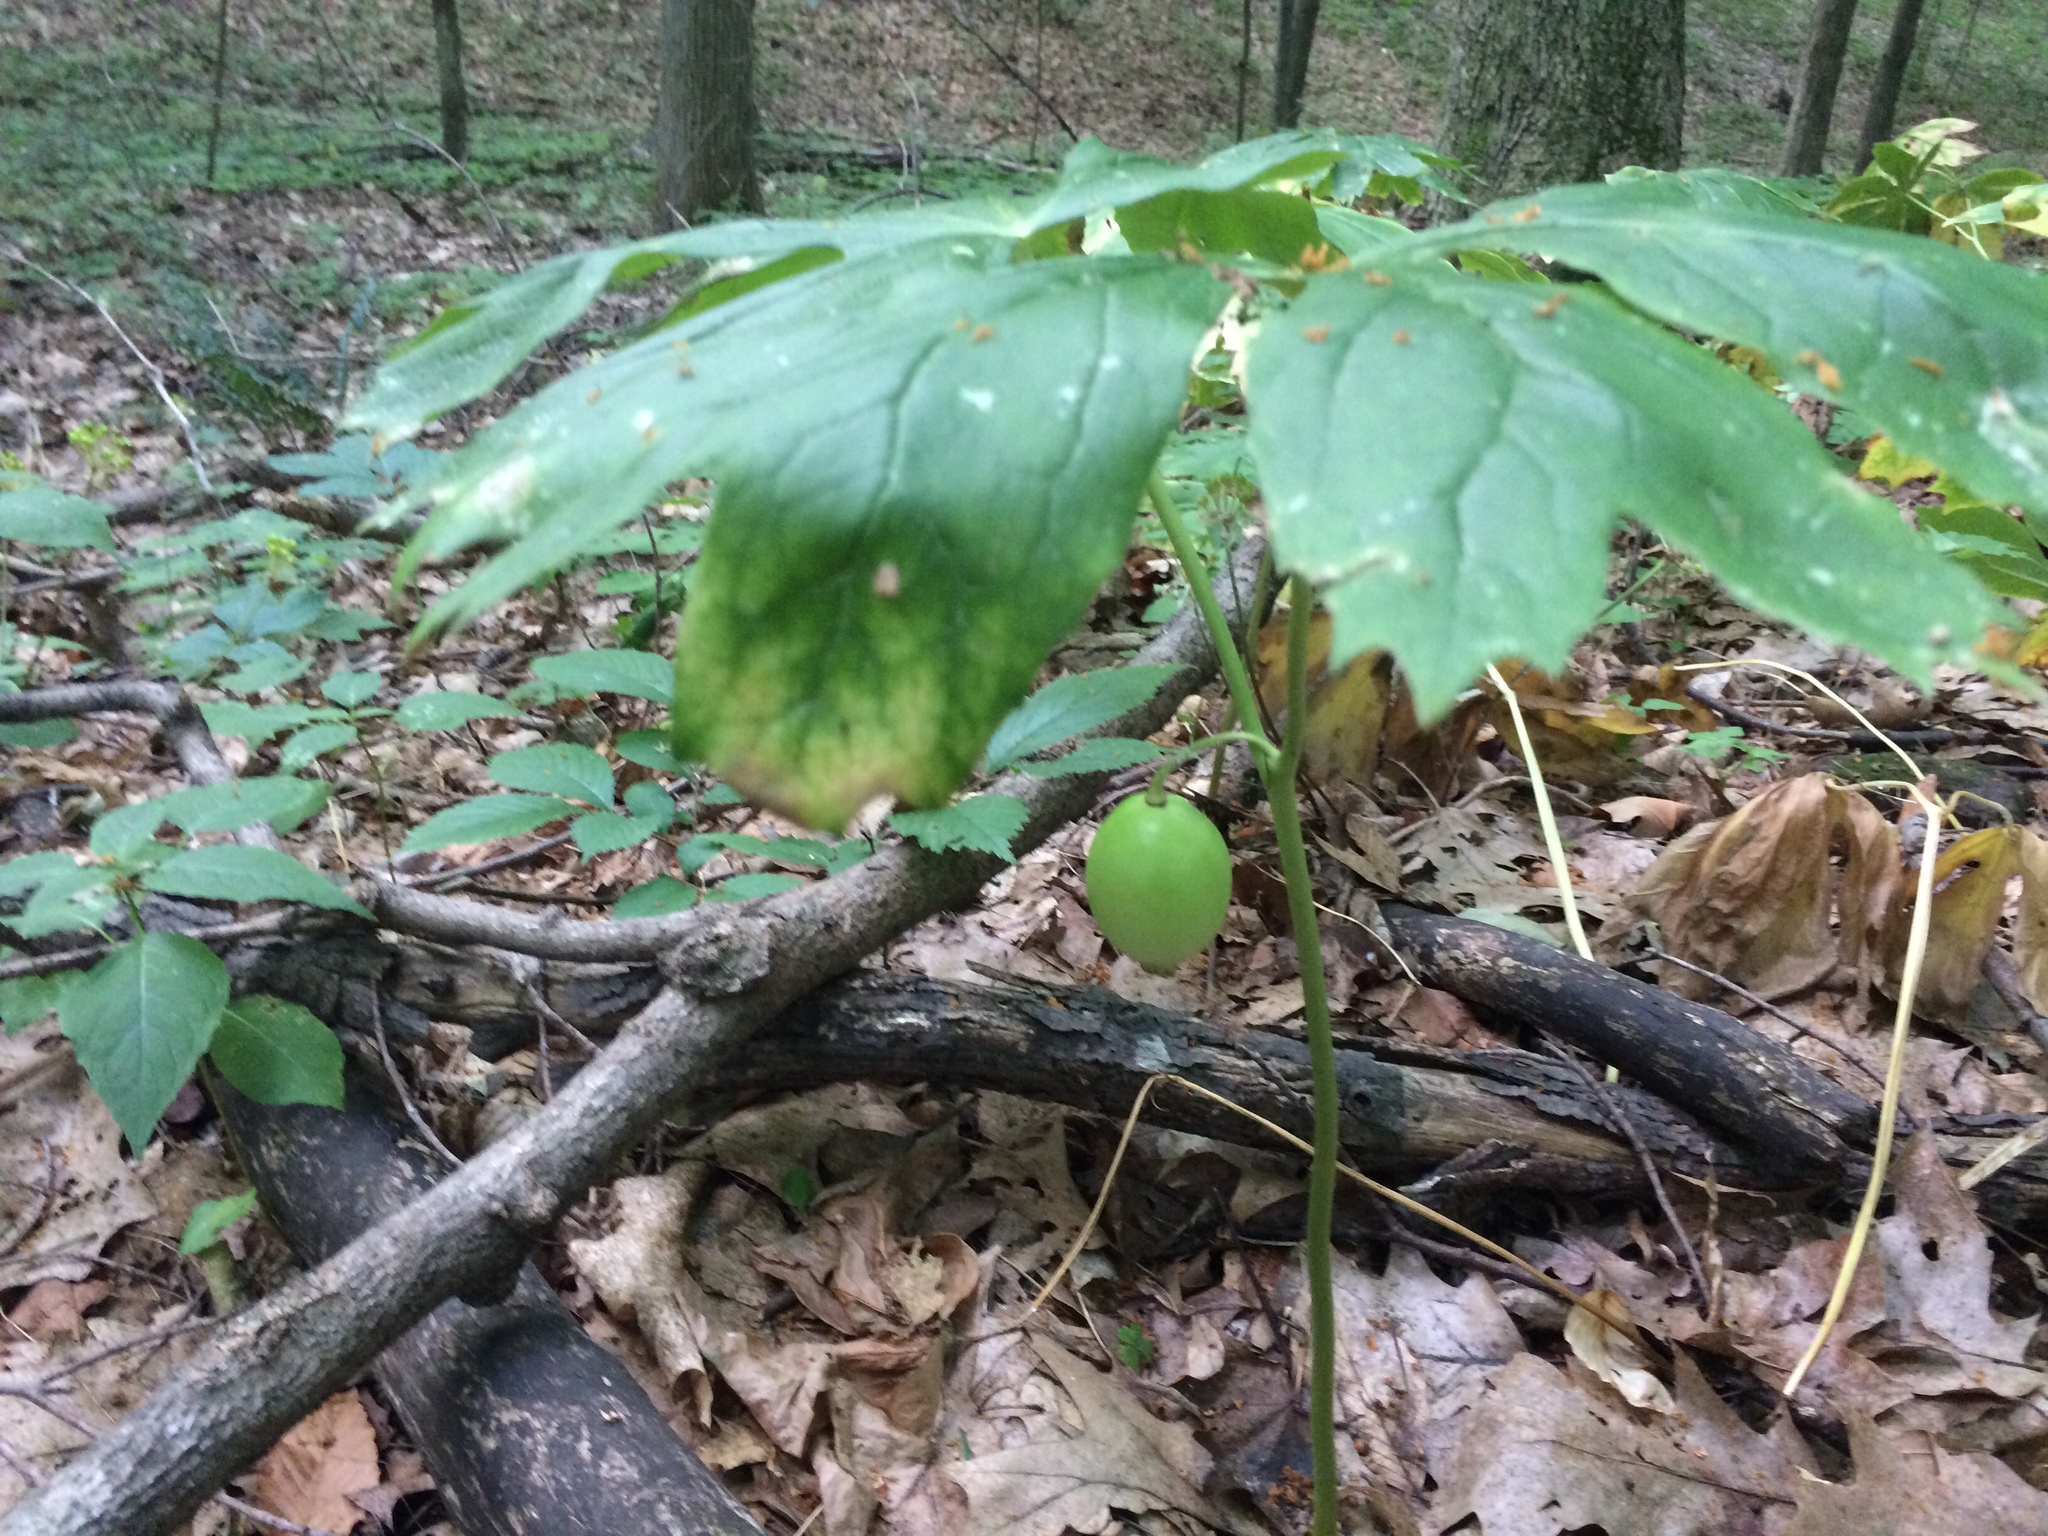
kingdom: Plantae
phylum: Tracheophyta
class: Magnoliopsida
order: Ranunculales
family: Berberidaceae
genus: Podophyllum
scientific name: Podophyllum peltatum
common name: Wild mandrake
